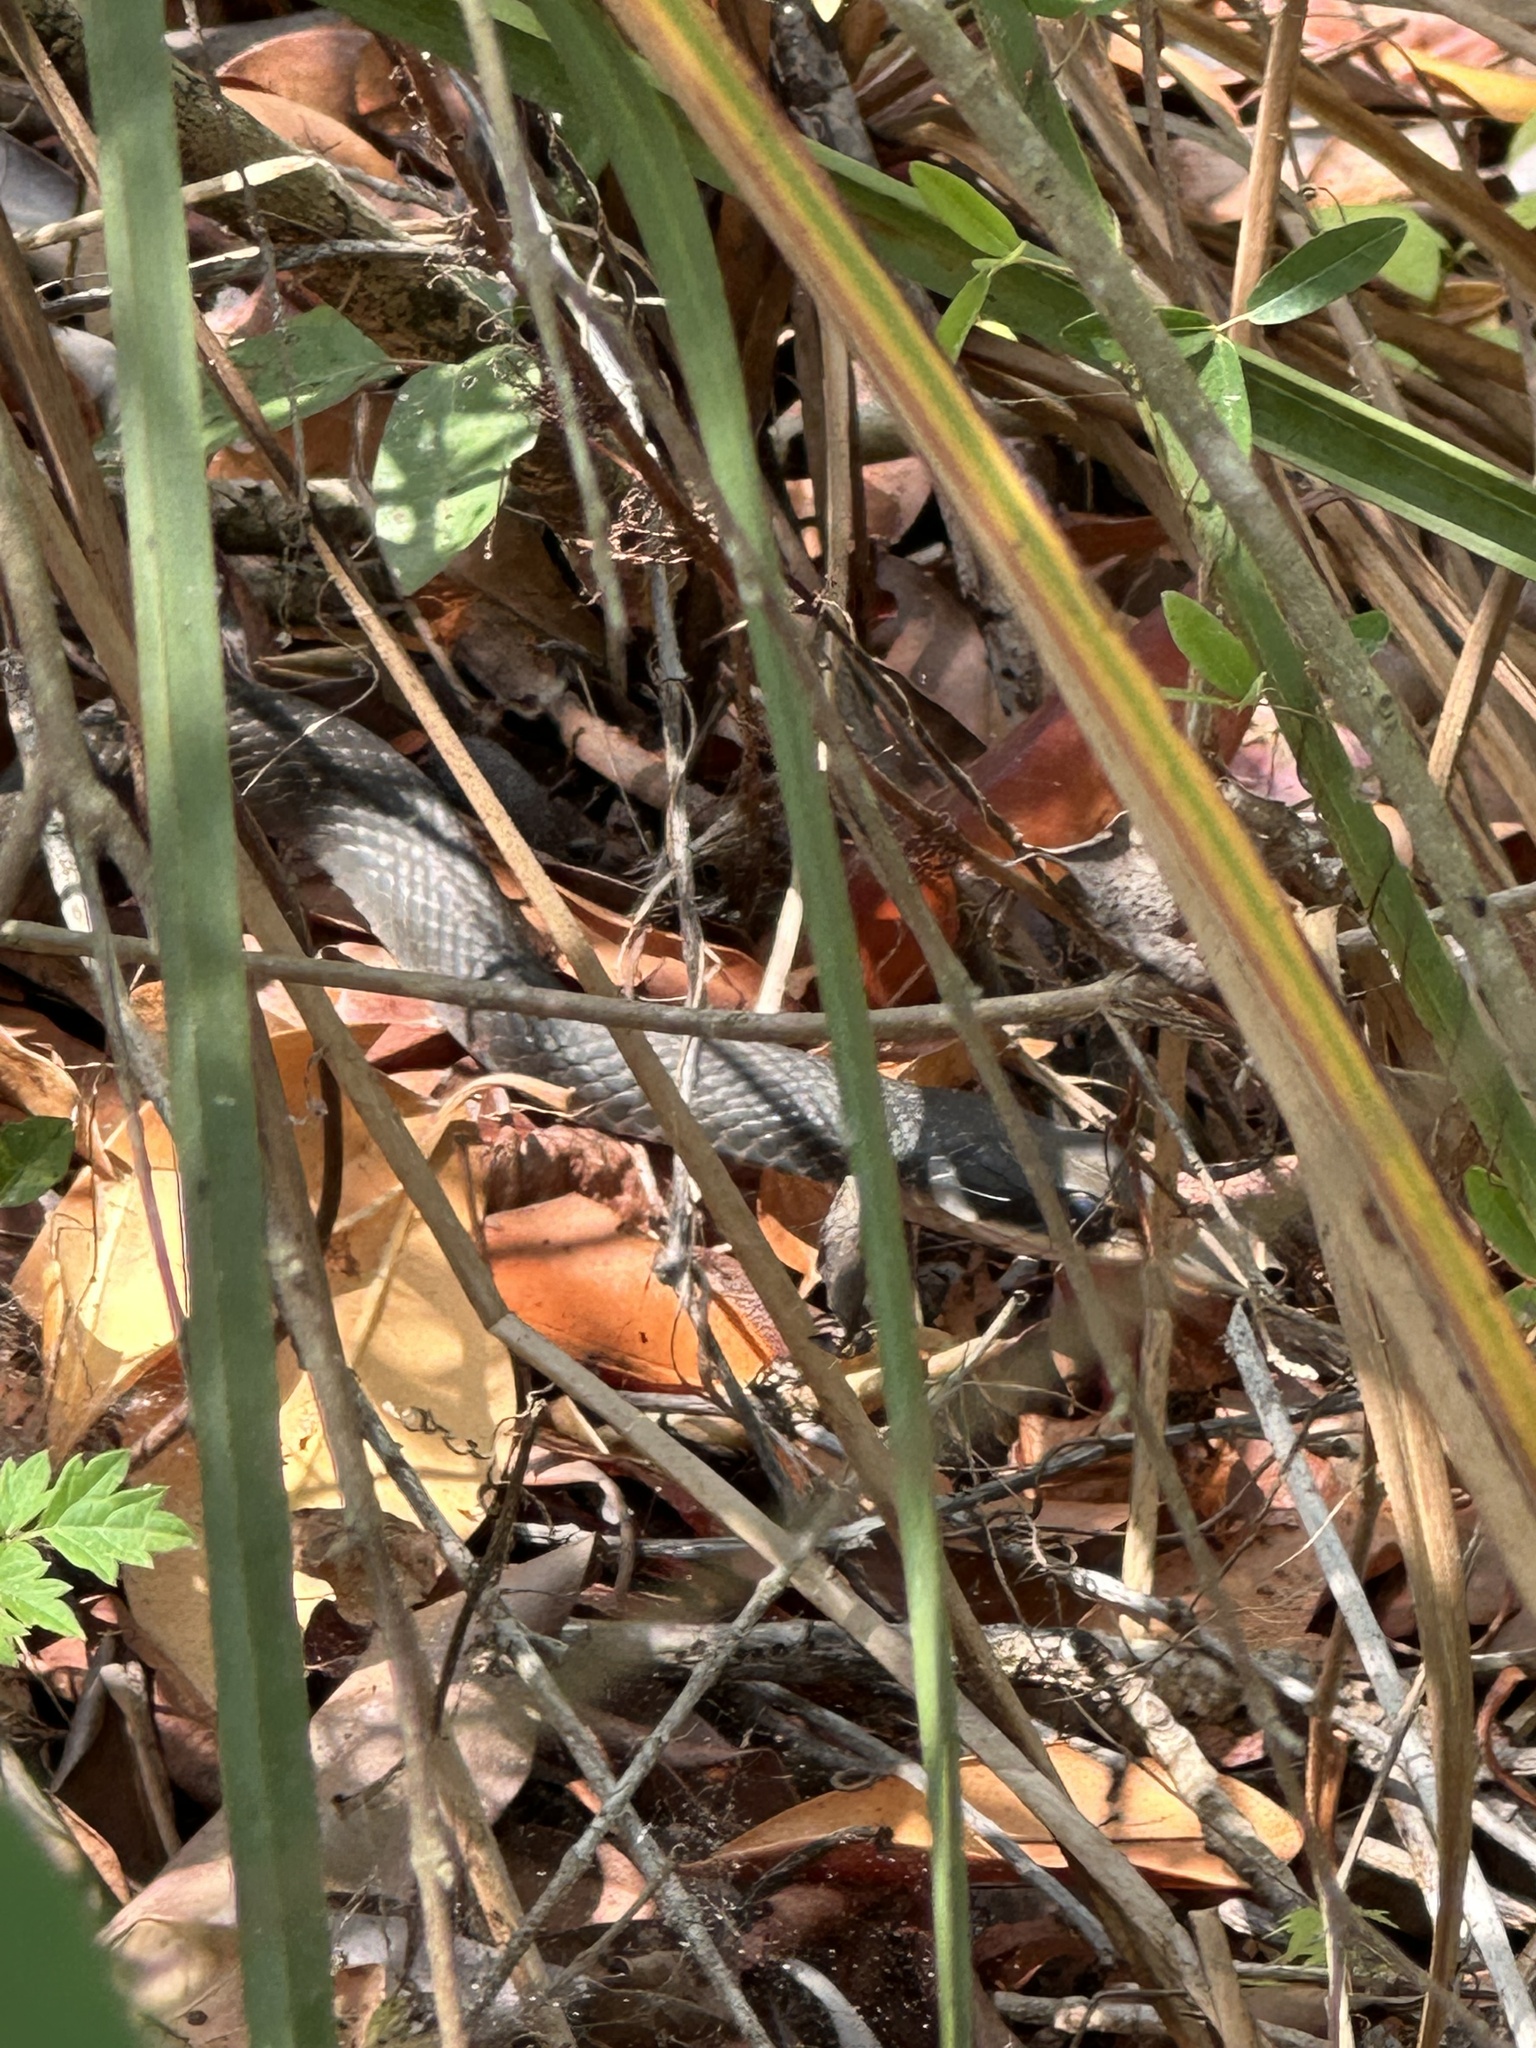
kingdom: Animalia
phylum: Chordata
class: Squamata
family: Colubridae
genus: Coluber
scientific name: Coluber constrictor
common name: Eastern racer
